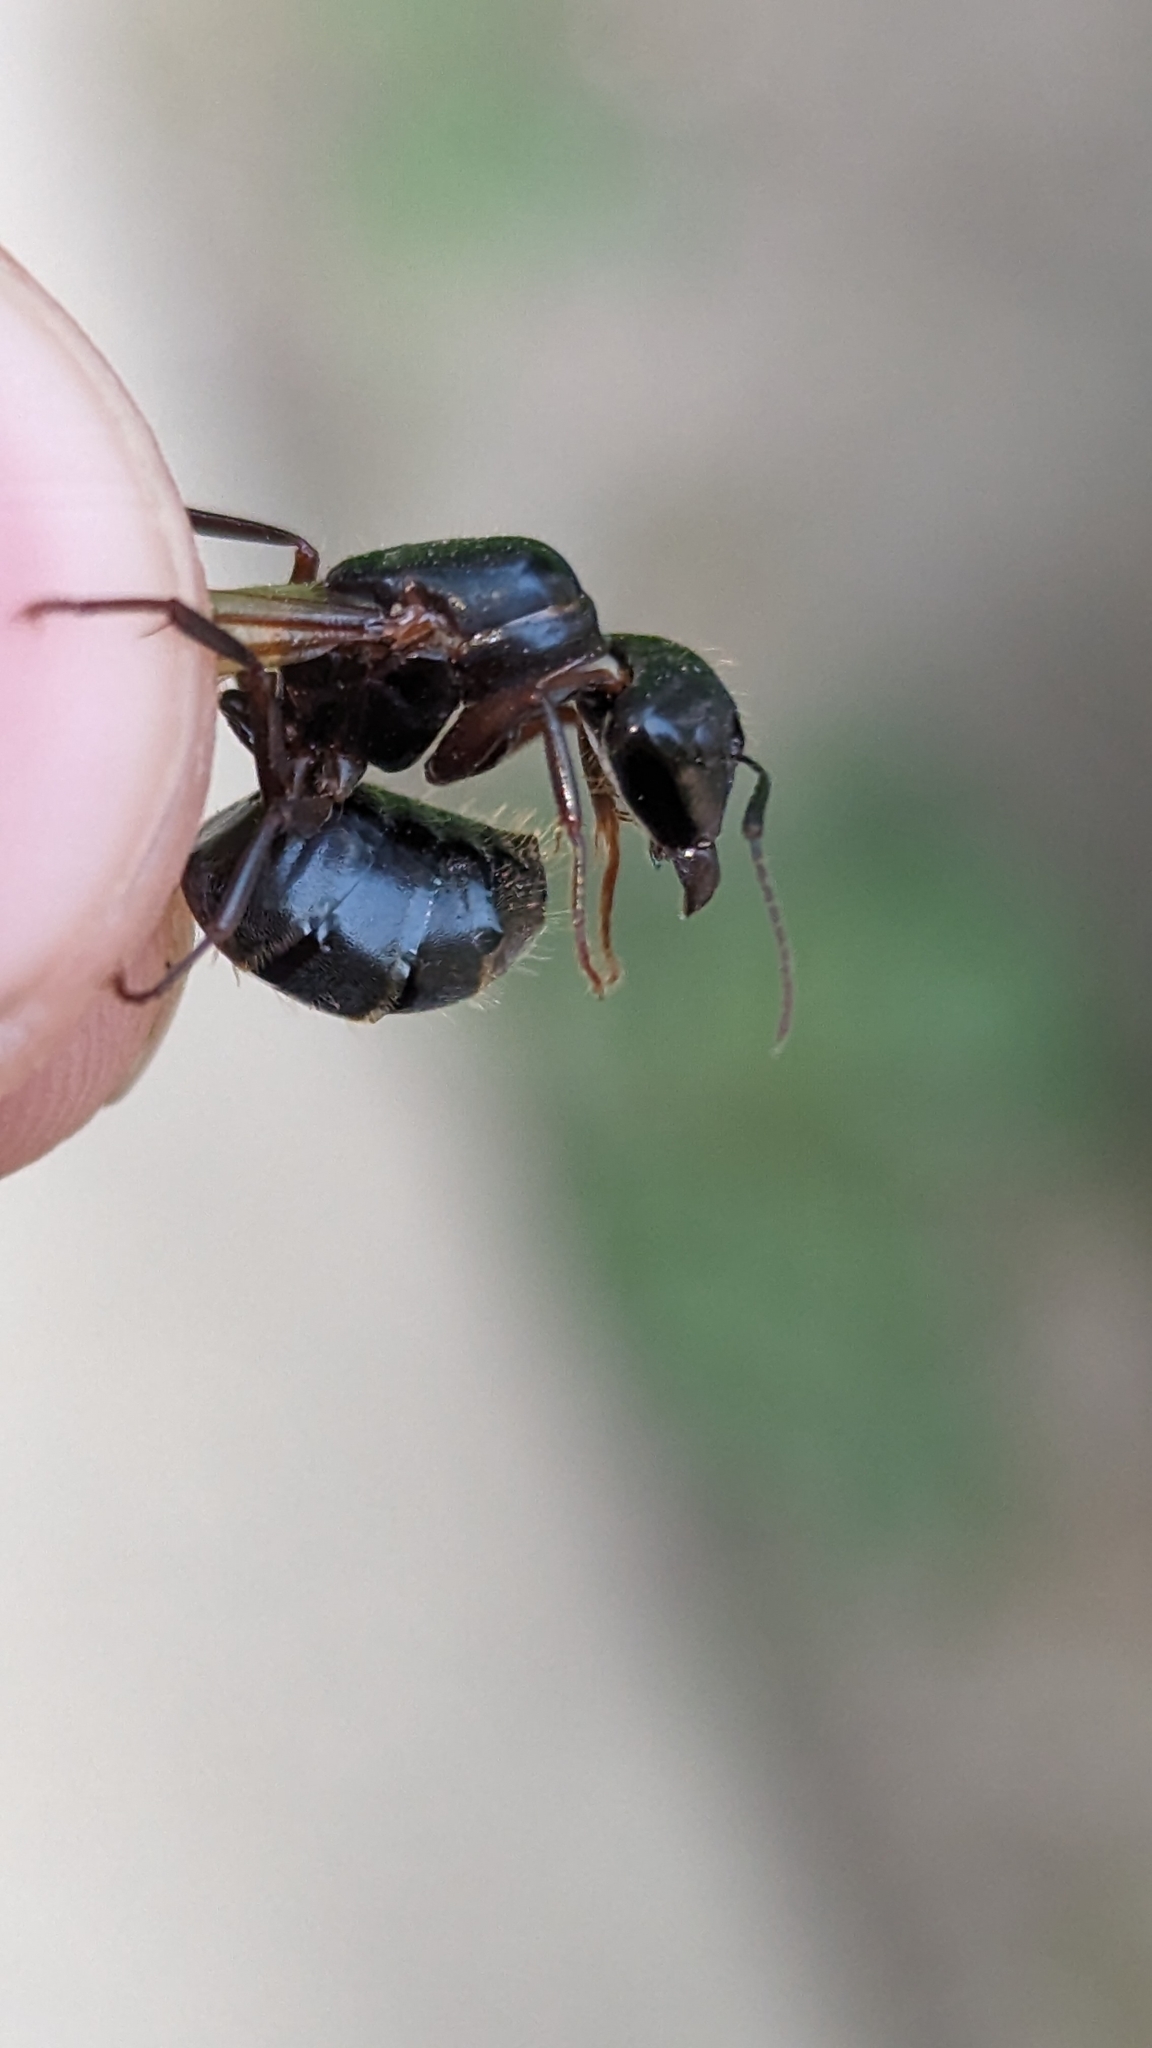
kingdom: Animalia
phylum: Arthropoda
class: Insecta
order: Hymenoptera
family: Formicidae
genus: Camponotus
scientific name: Camponotus pennsylvanicus
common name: Black carpenter ant
